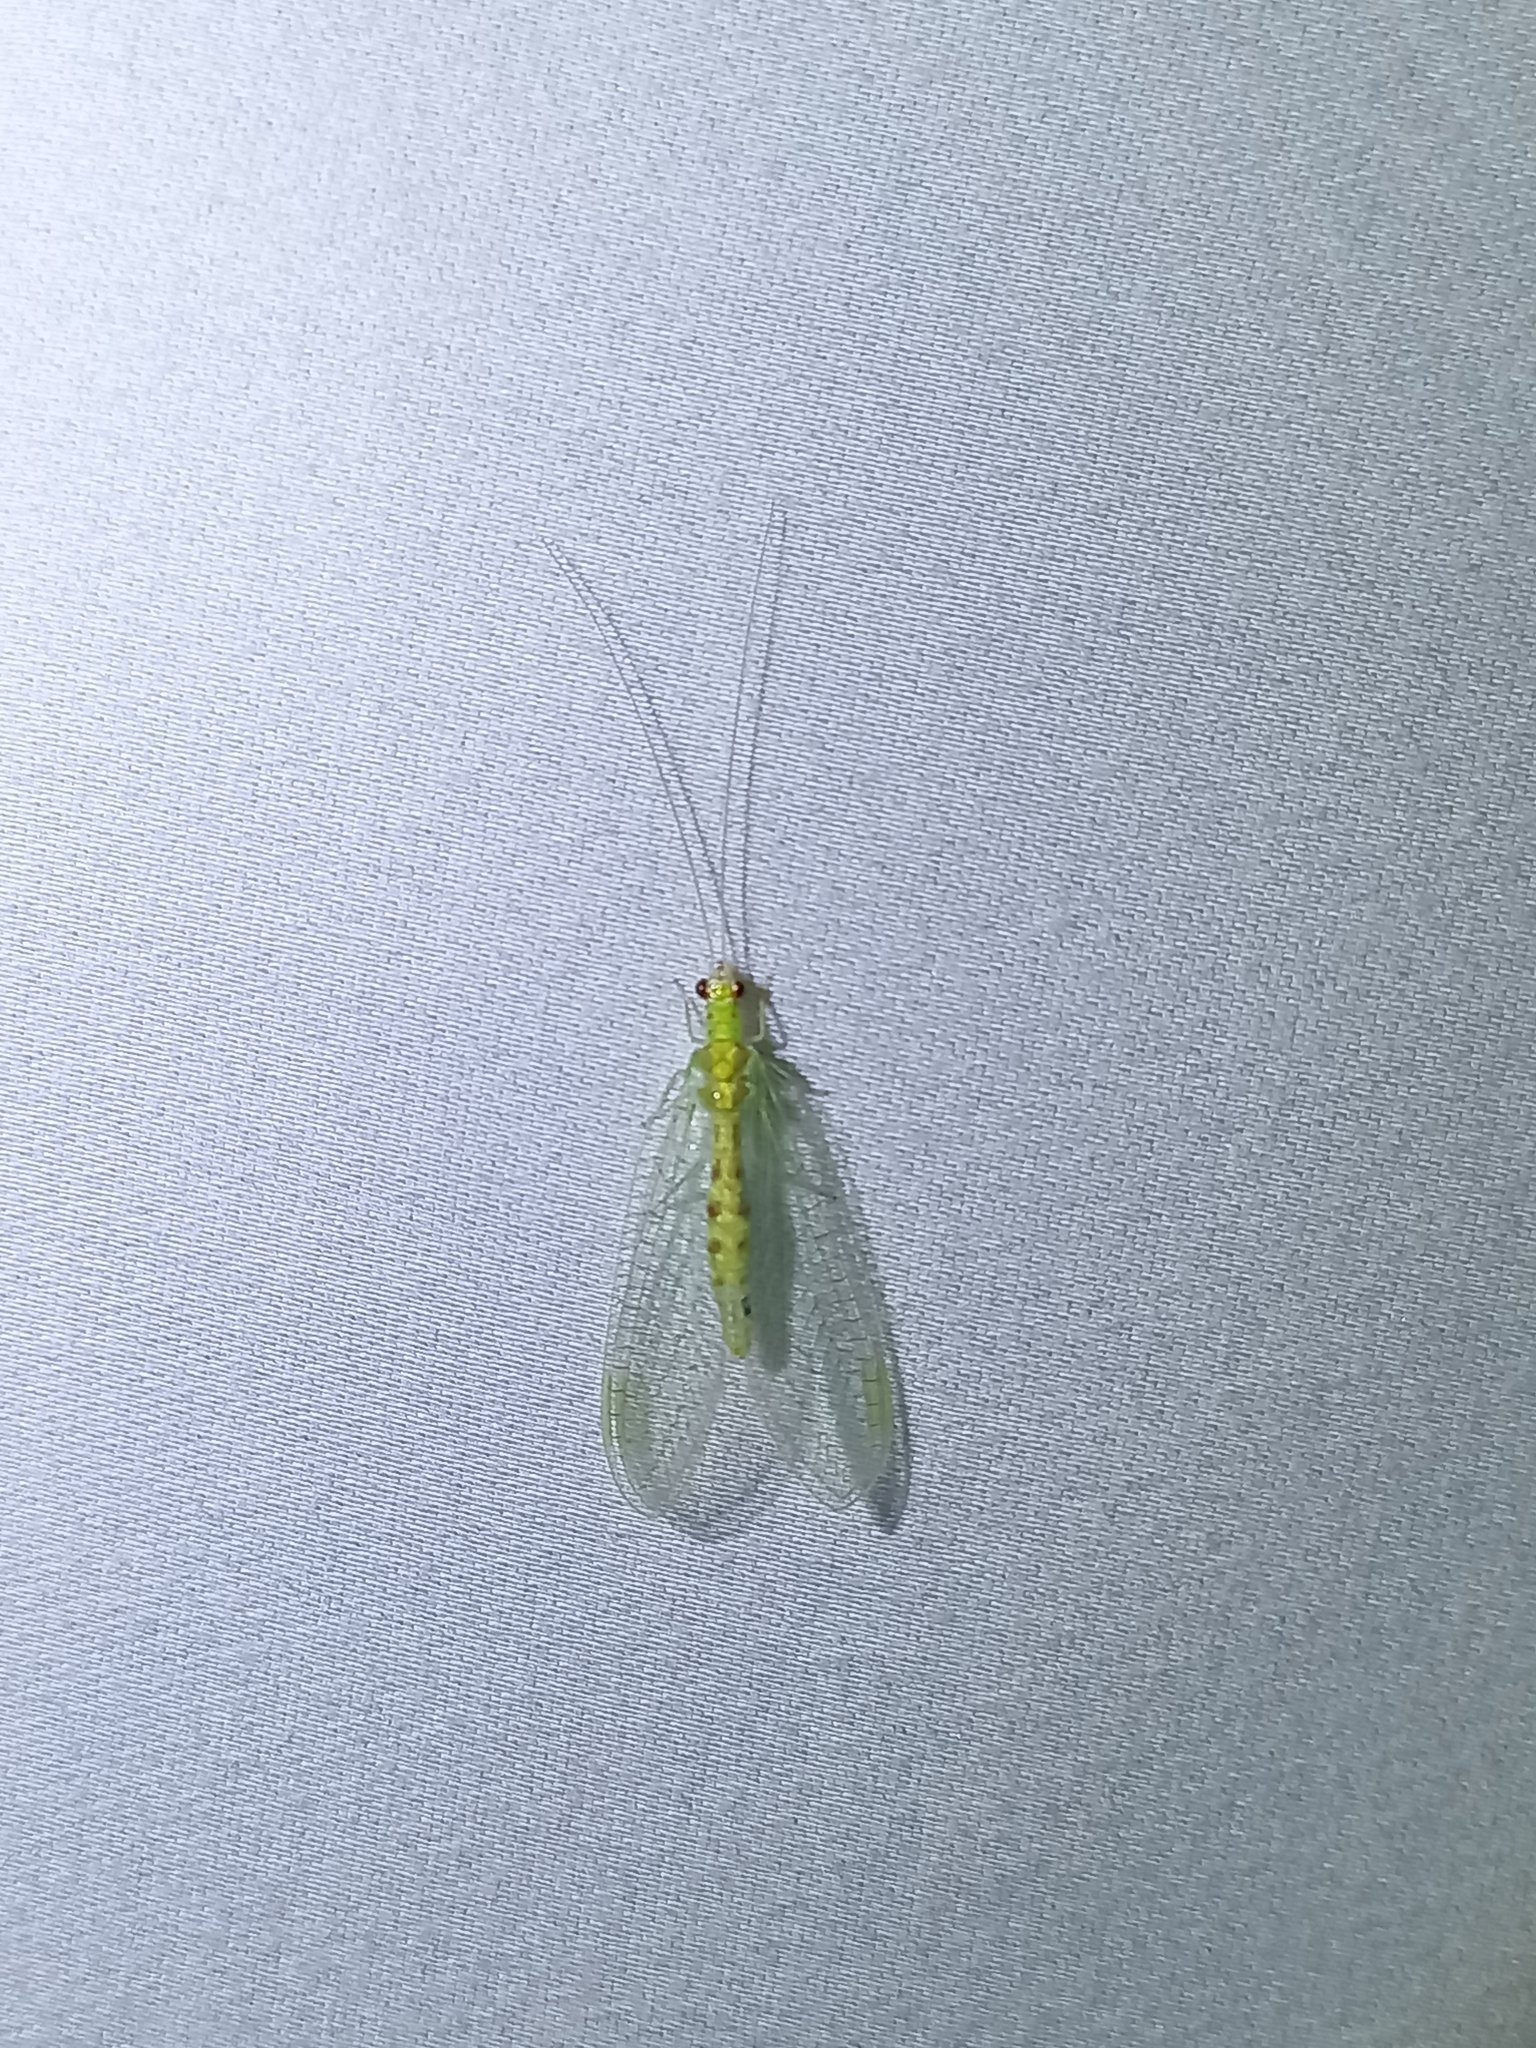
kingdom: Animalia
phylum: Arthropoda
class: Insecta
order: Neuroptera
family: Chrysopidae
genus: Chrysopa
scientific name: Chrysopa quadripunctata
